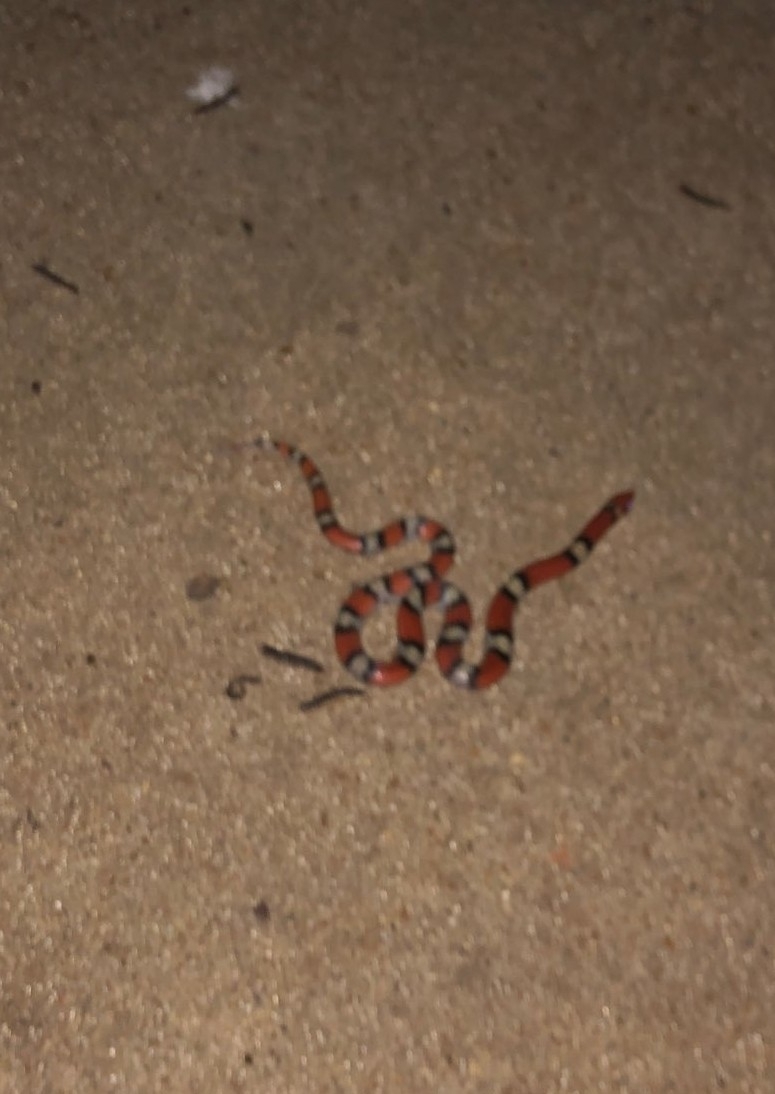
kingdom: Animalia
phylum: Chordata
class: Squamata
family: Colubridae
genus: Cemophora
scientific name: Cemophora coccinea
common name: Scarlet snake
